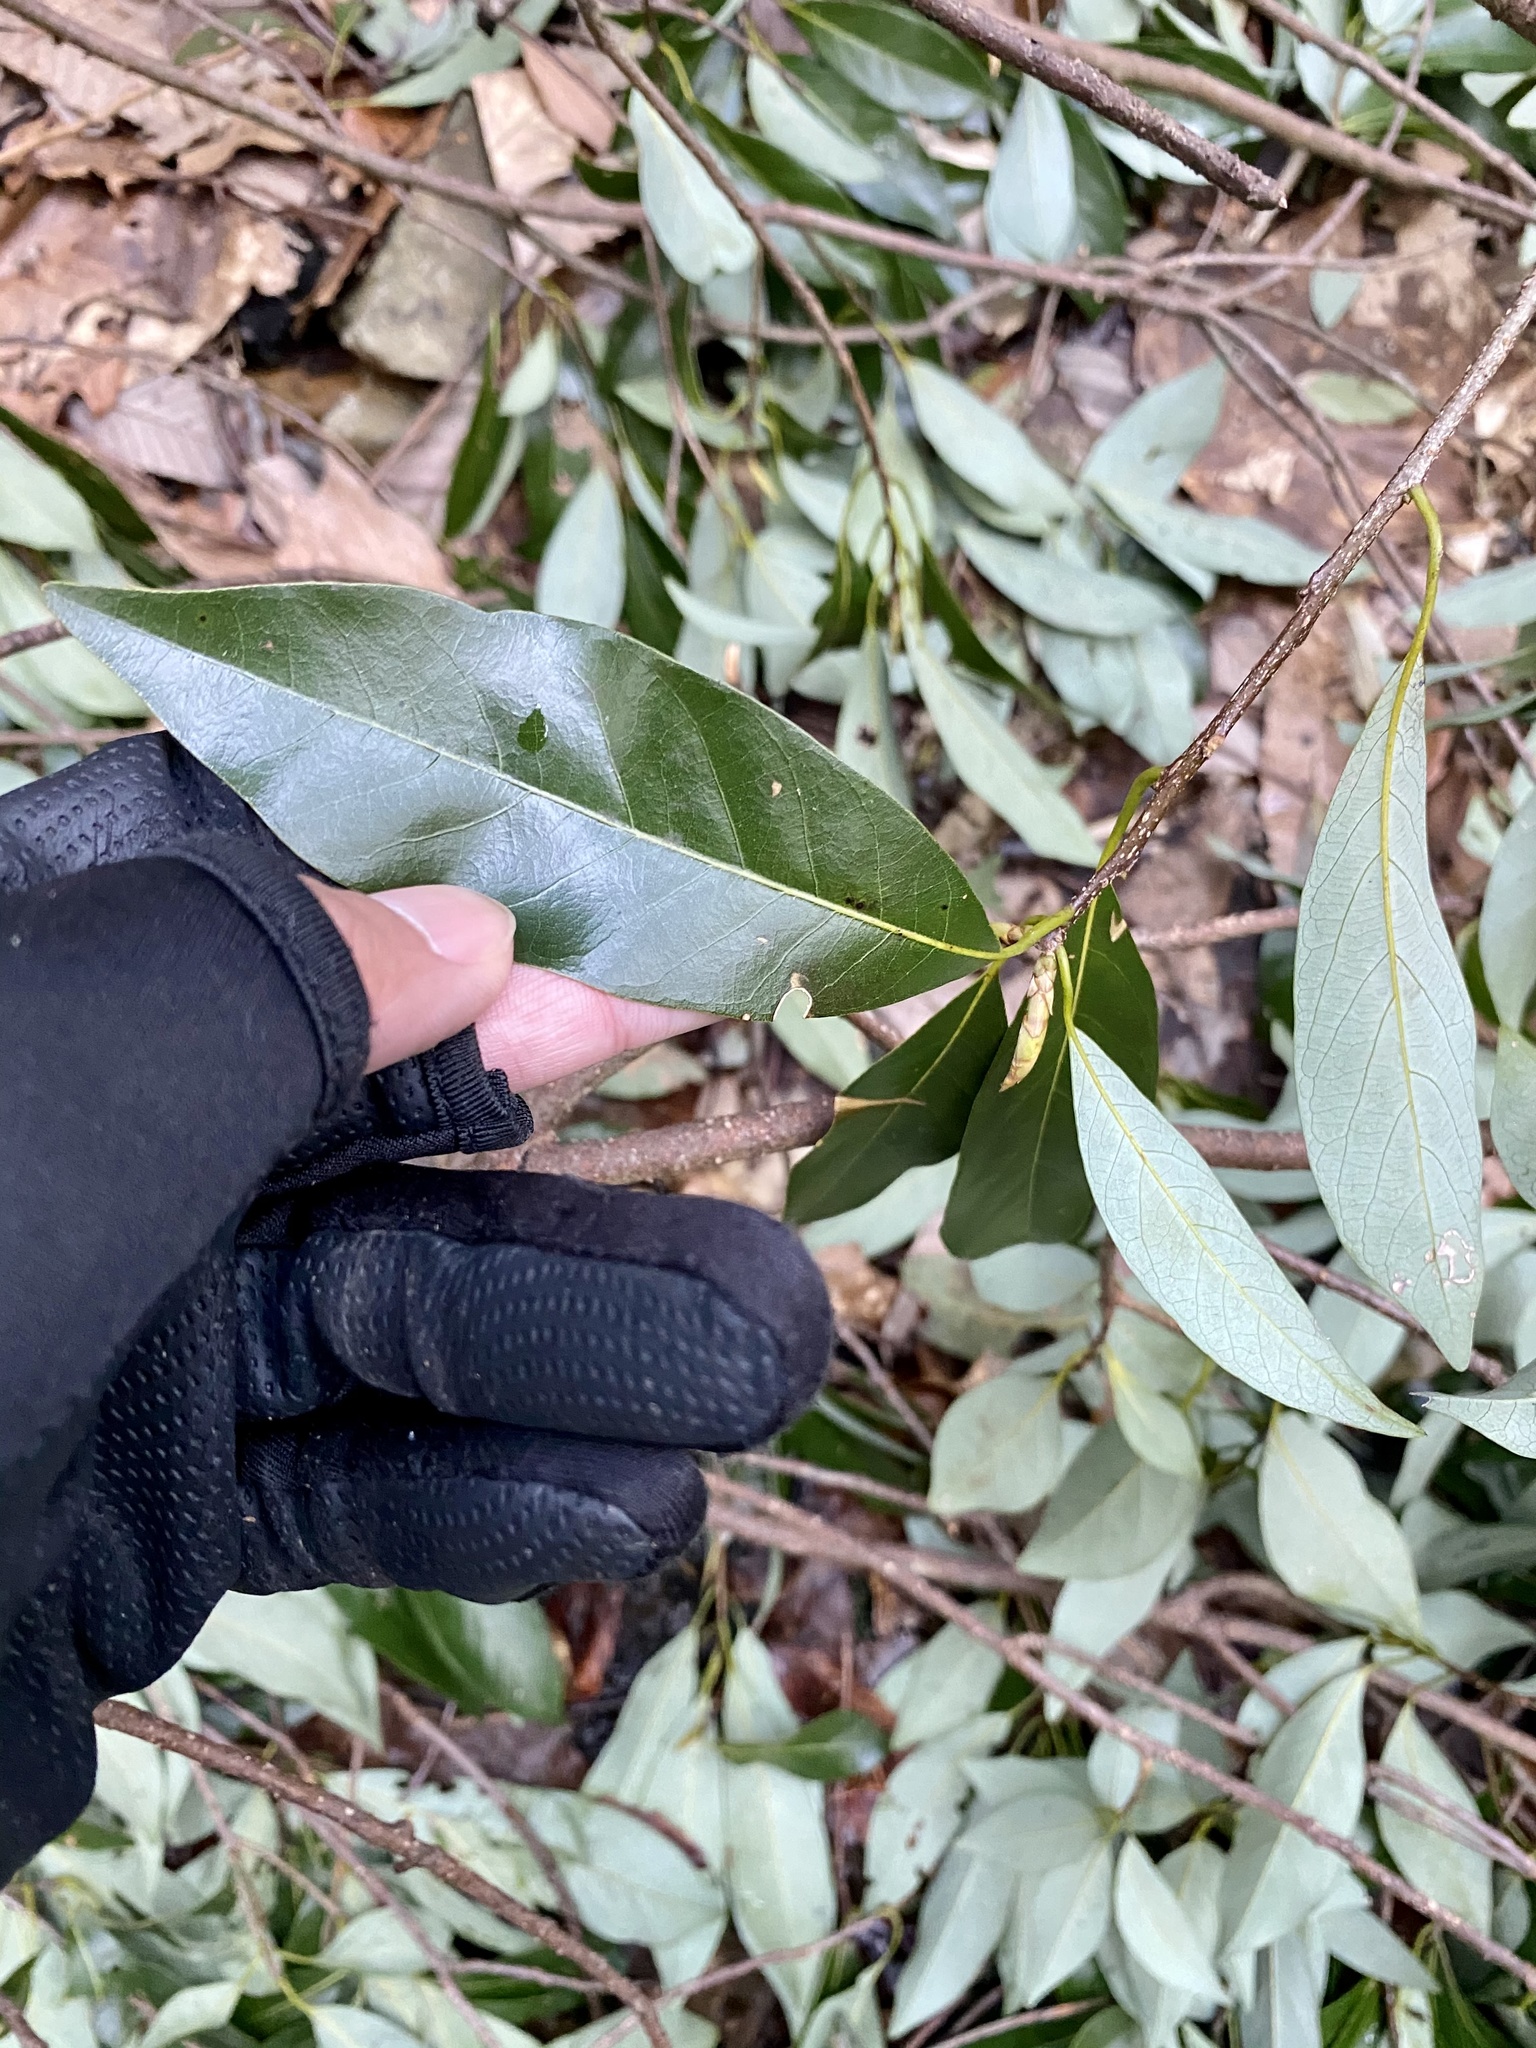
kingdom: Plantae
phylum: Tracheophyta
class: Magnoliopsida
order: Laurales
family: Lauraceae
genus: Litsea
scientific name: Litsea coreana
